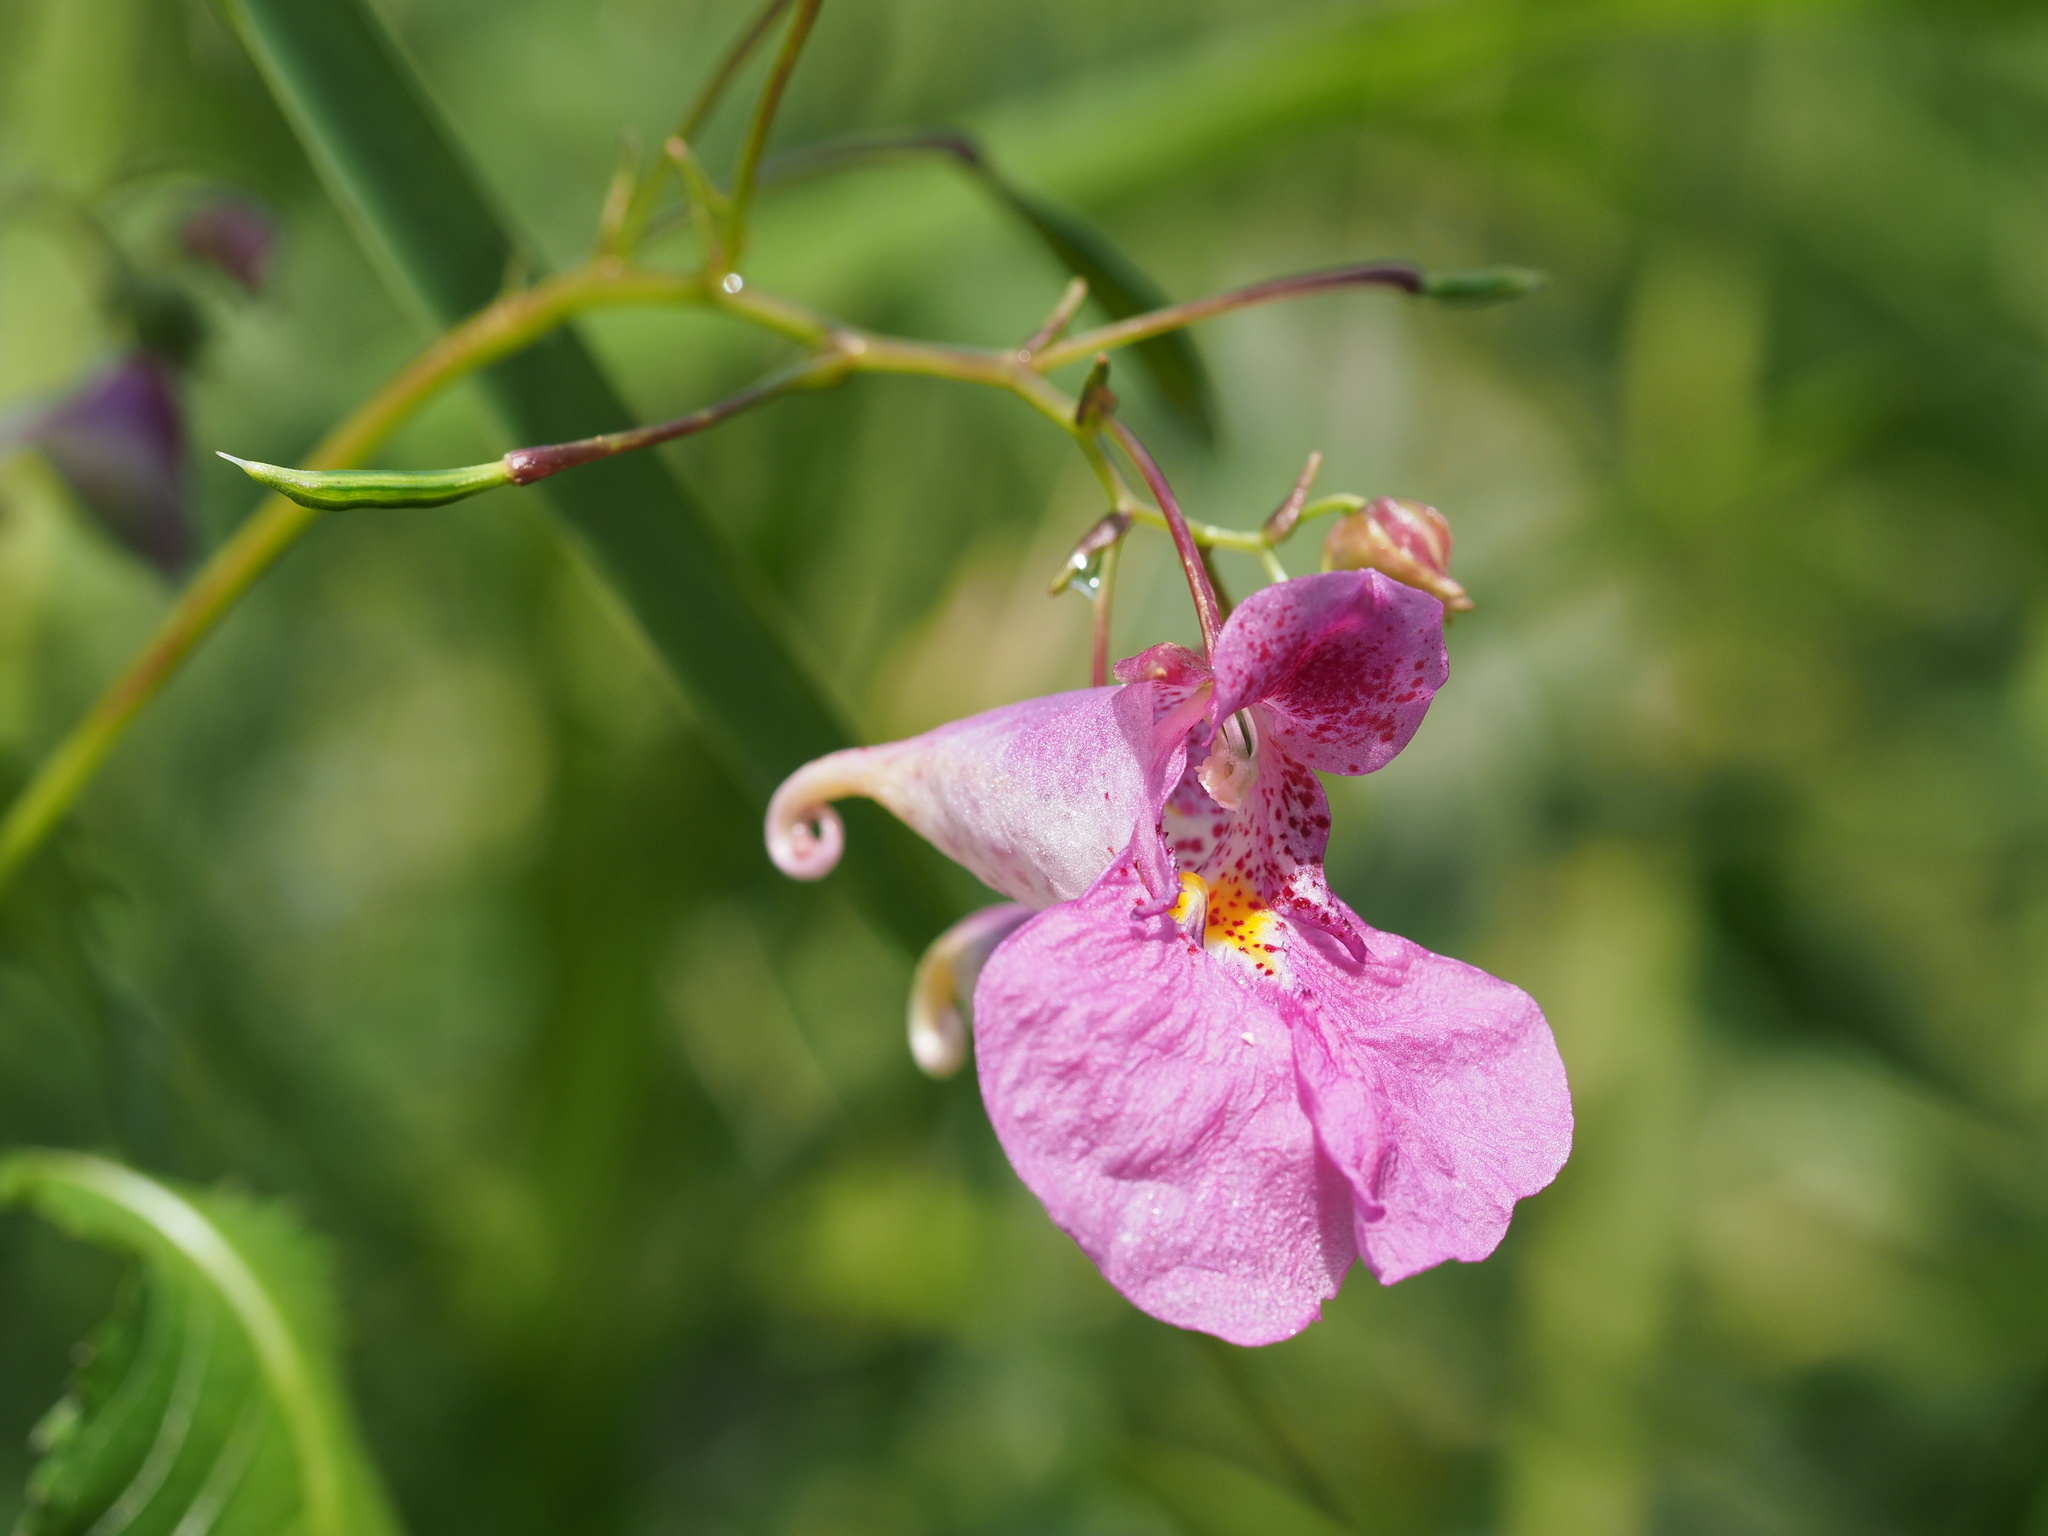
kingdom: Plantae
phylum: Tracheophyta
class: Magnoliopsida
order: Ericales
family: Balsaminaceae
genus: Impatiens
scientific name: Impatiens textorii
